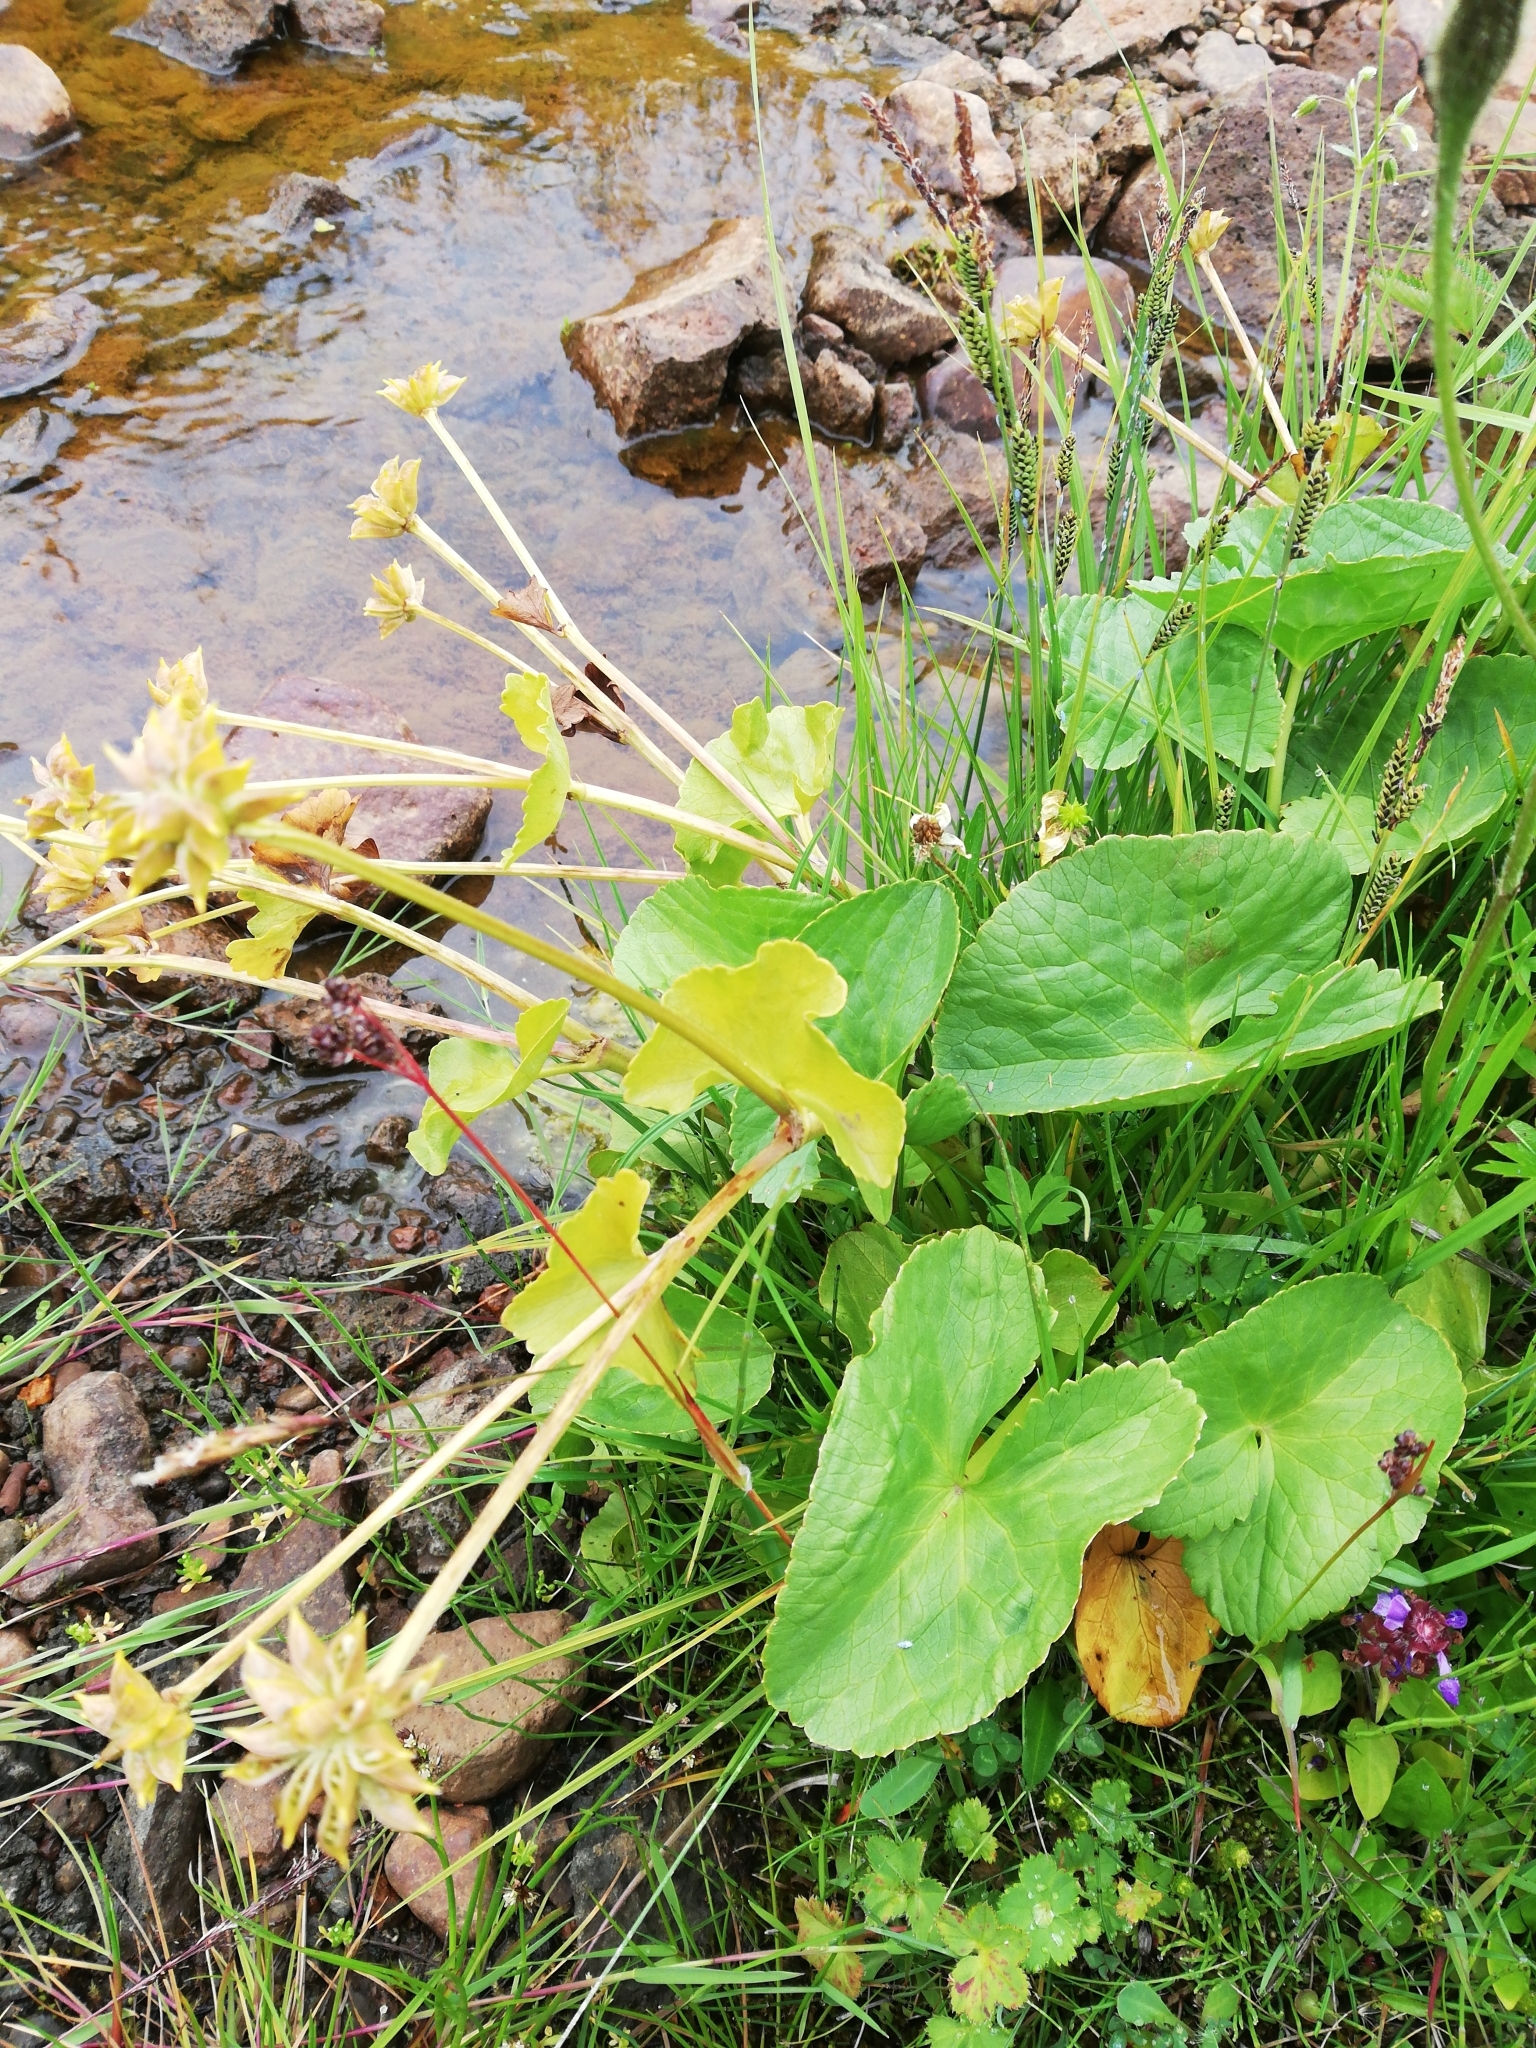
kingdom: Plantae
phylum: Tracheophyta
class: Magnoliopsida
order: Ranunculales
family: Ranunculaceae
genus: Caltha
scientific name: Caltha palustris
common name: Marsh marigold
